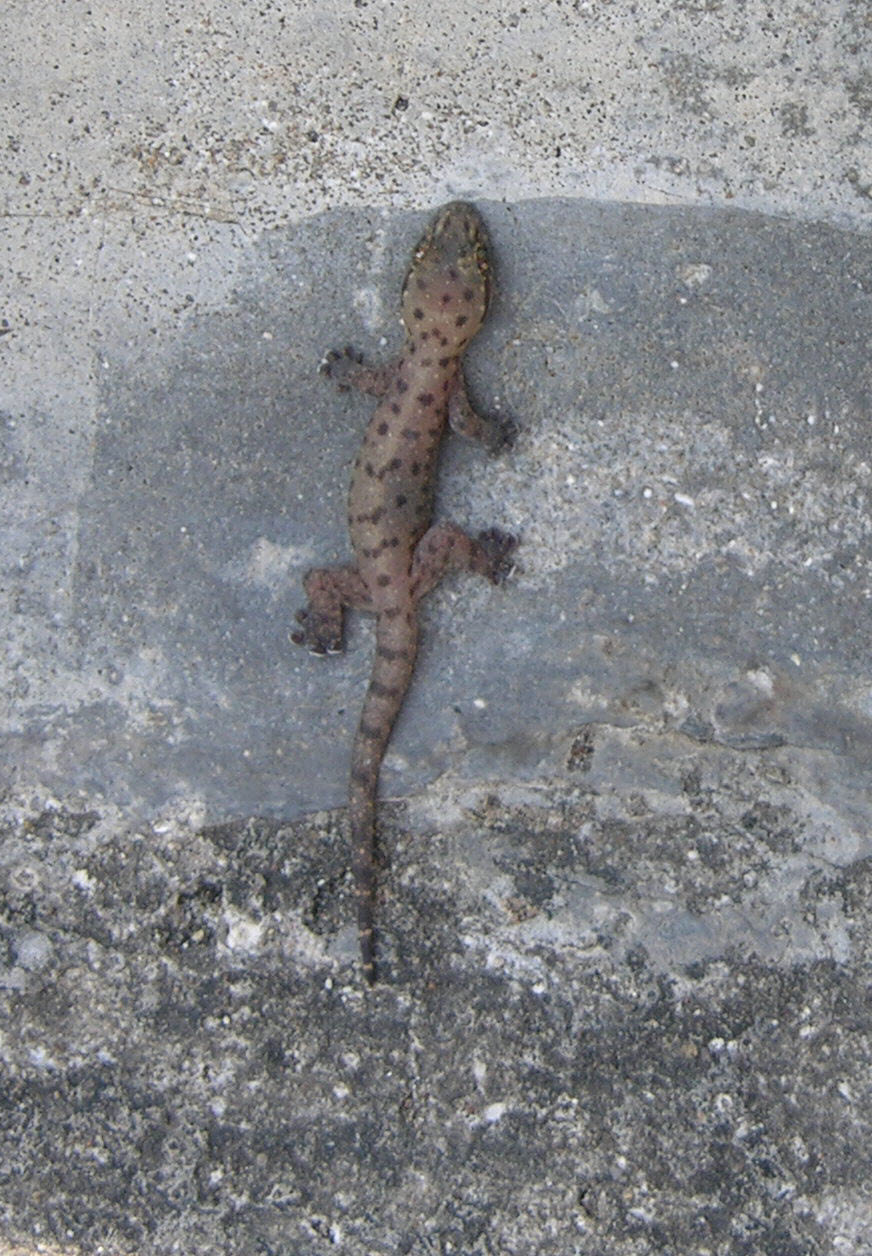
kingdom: Animalia
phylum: Chordata
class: Squamata
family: Gekkonidae
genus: Gehyra
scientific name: Gehyra mutilata
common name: Stump-toed gecko
